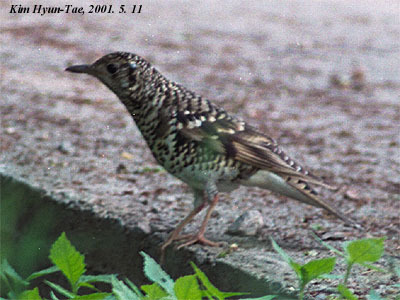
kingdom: Animalia
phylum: Chordata
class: Aves
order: Passeriformes
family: Turdidae
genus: Zoothera
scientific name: Zoothera aurea
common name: White's thrush
